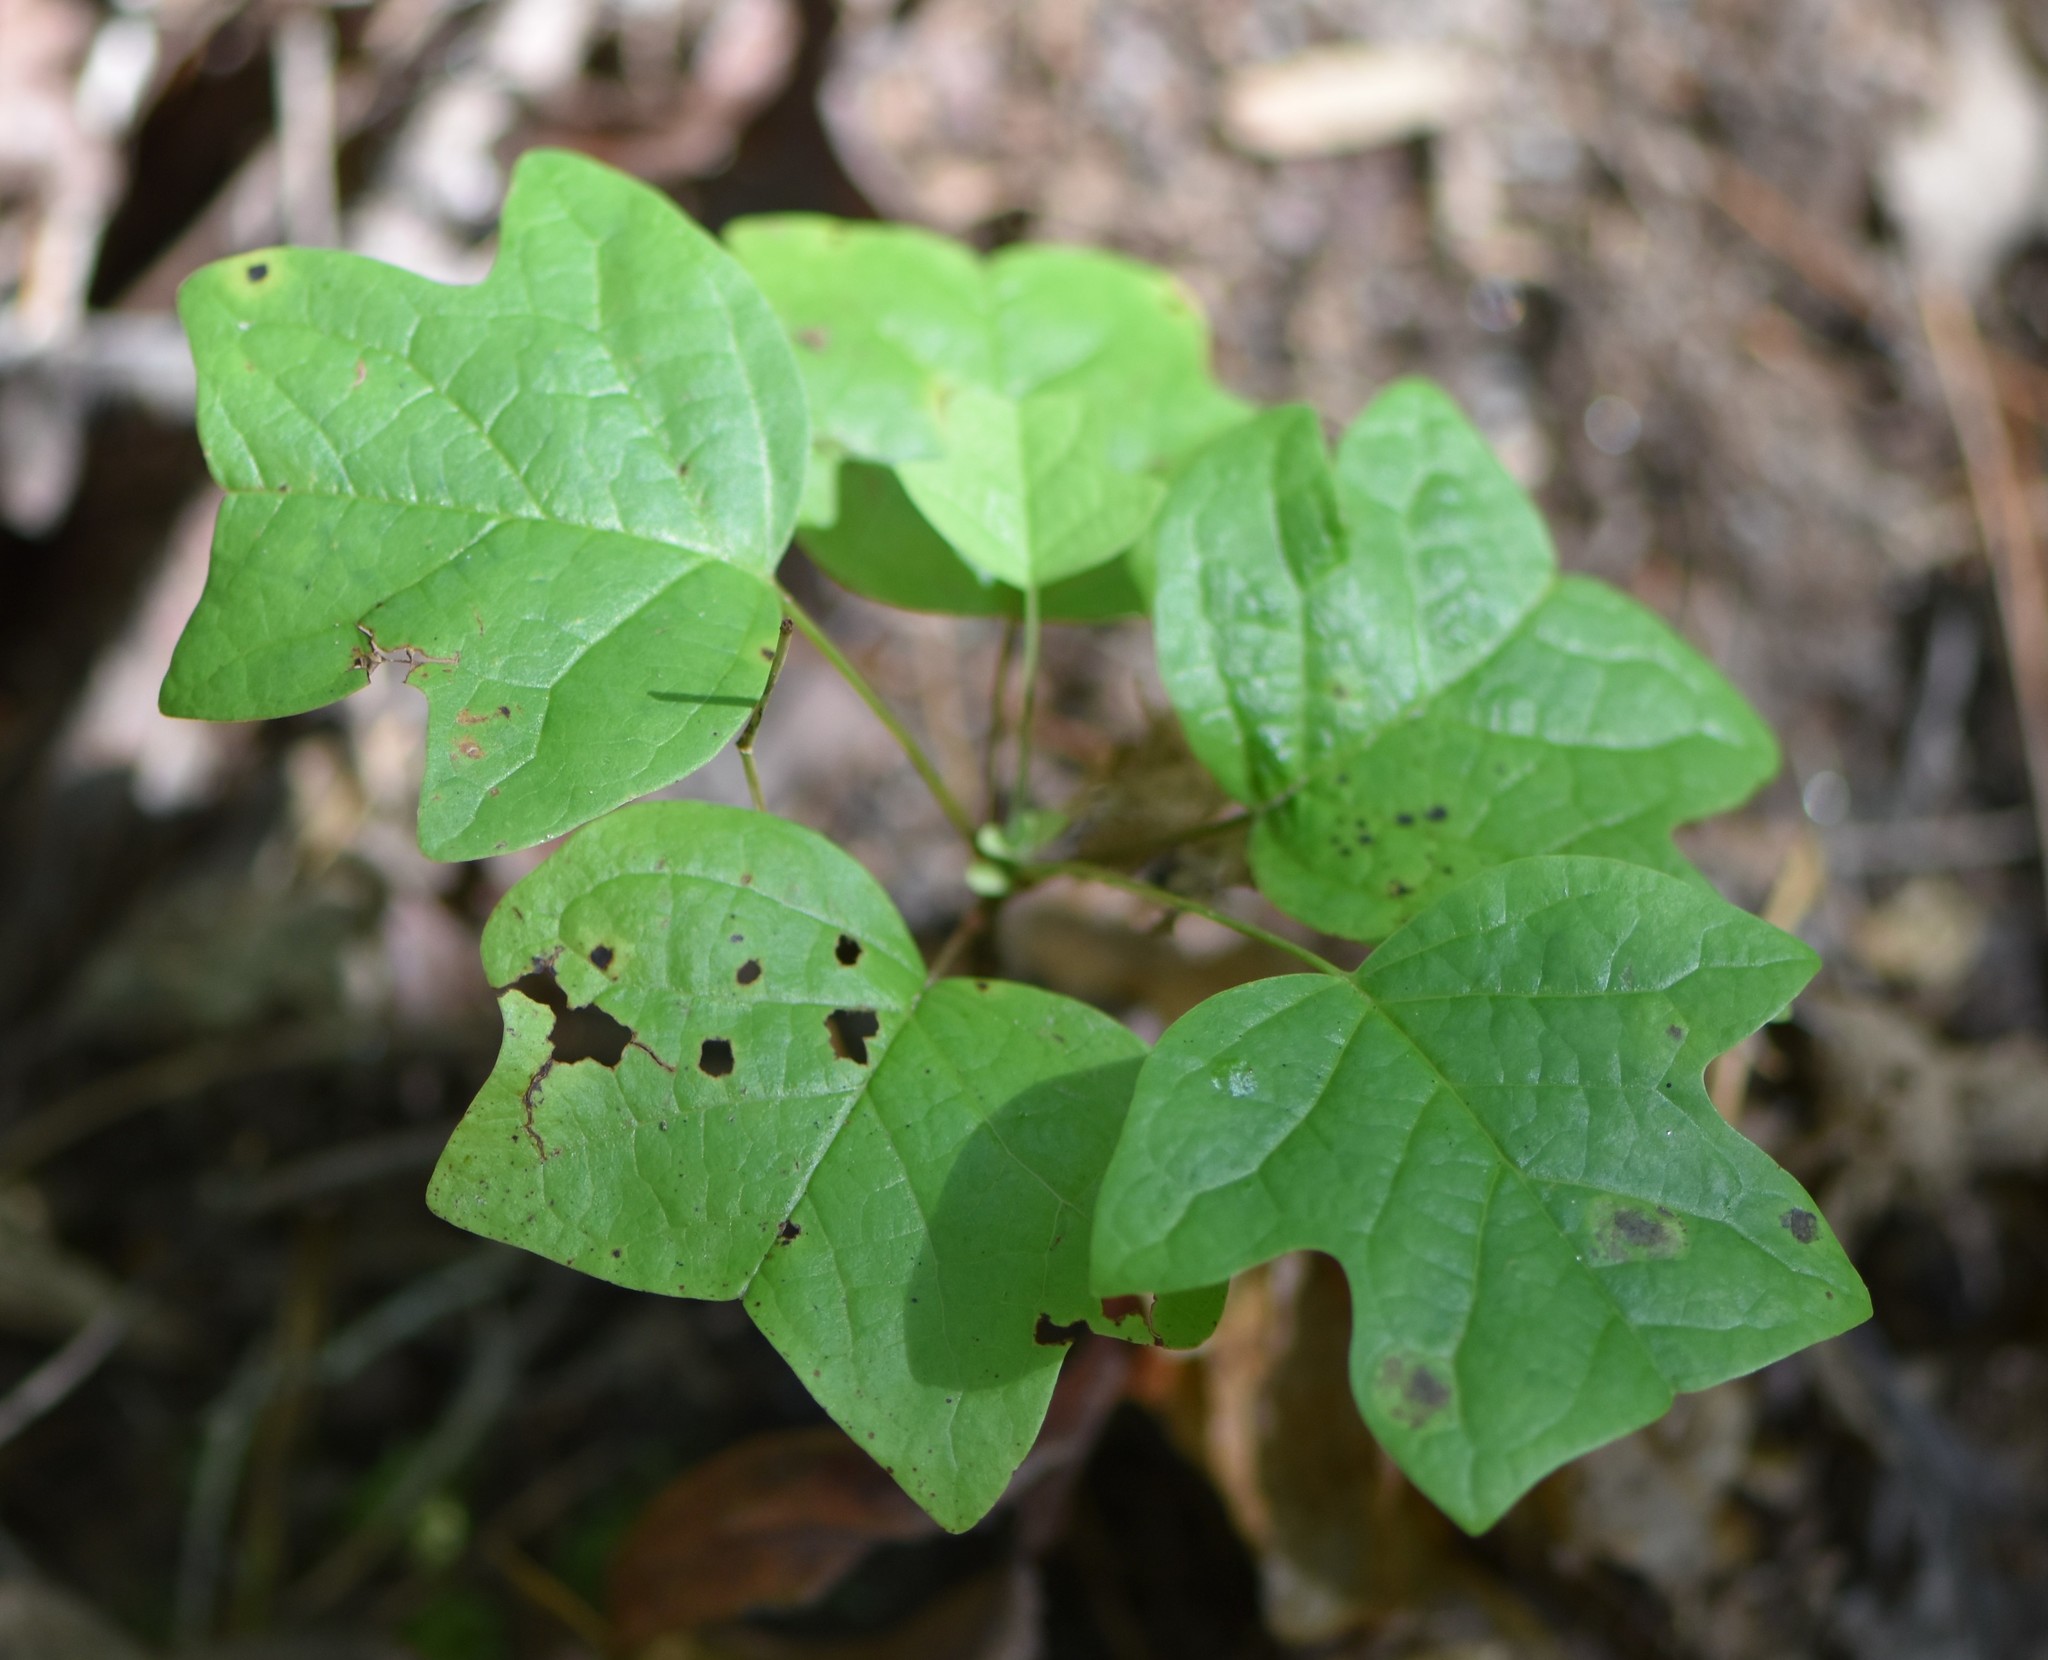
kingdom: Plantae
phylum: Tracheophyta
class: Magnoliopsida
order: Magnoliales
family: Magnoliaceae
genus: Liriodendron
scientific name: Liriodendron tulipifera
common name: Tulip tree
